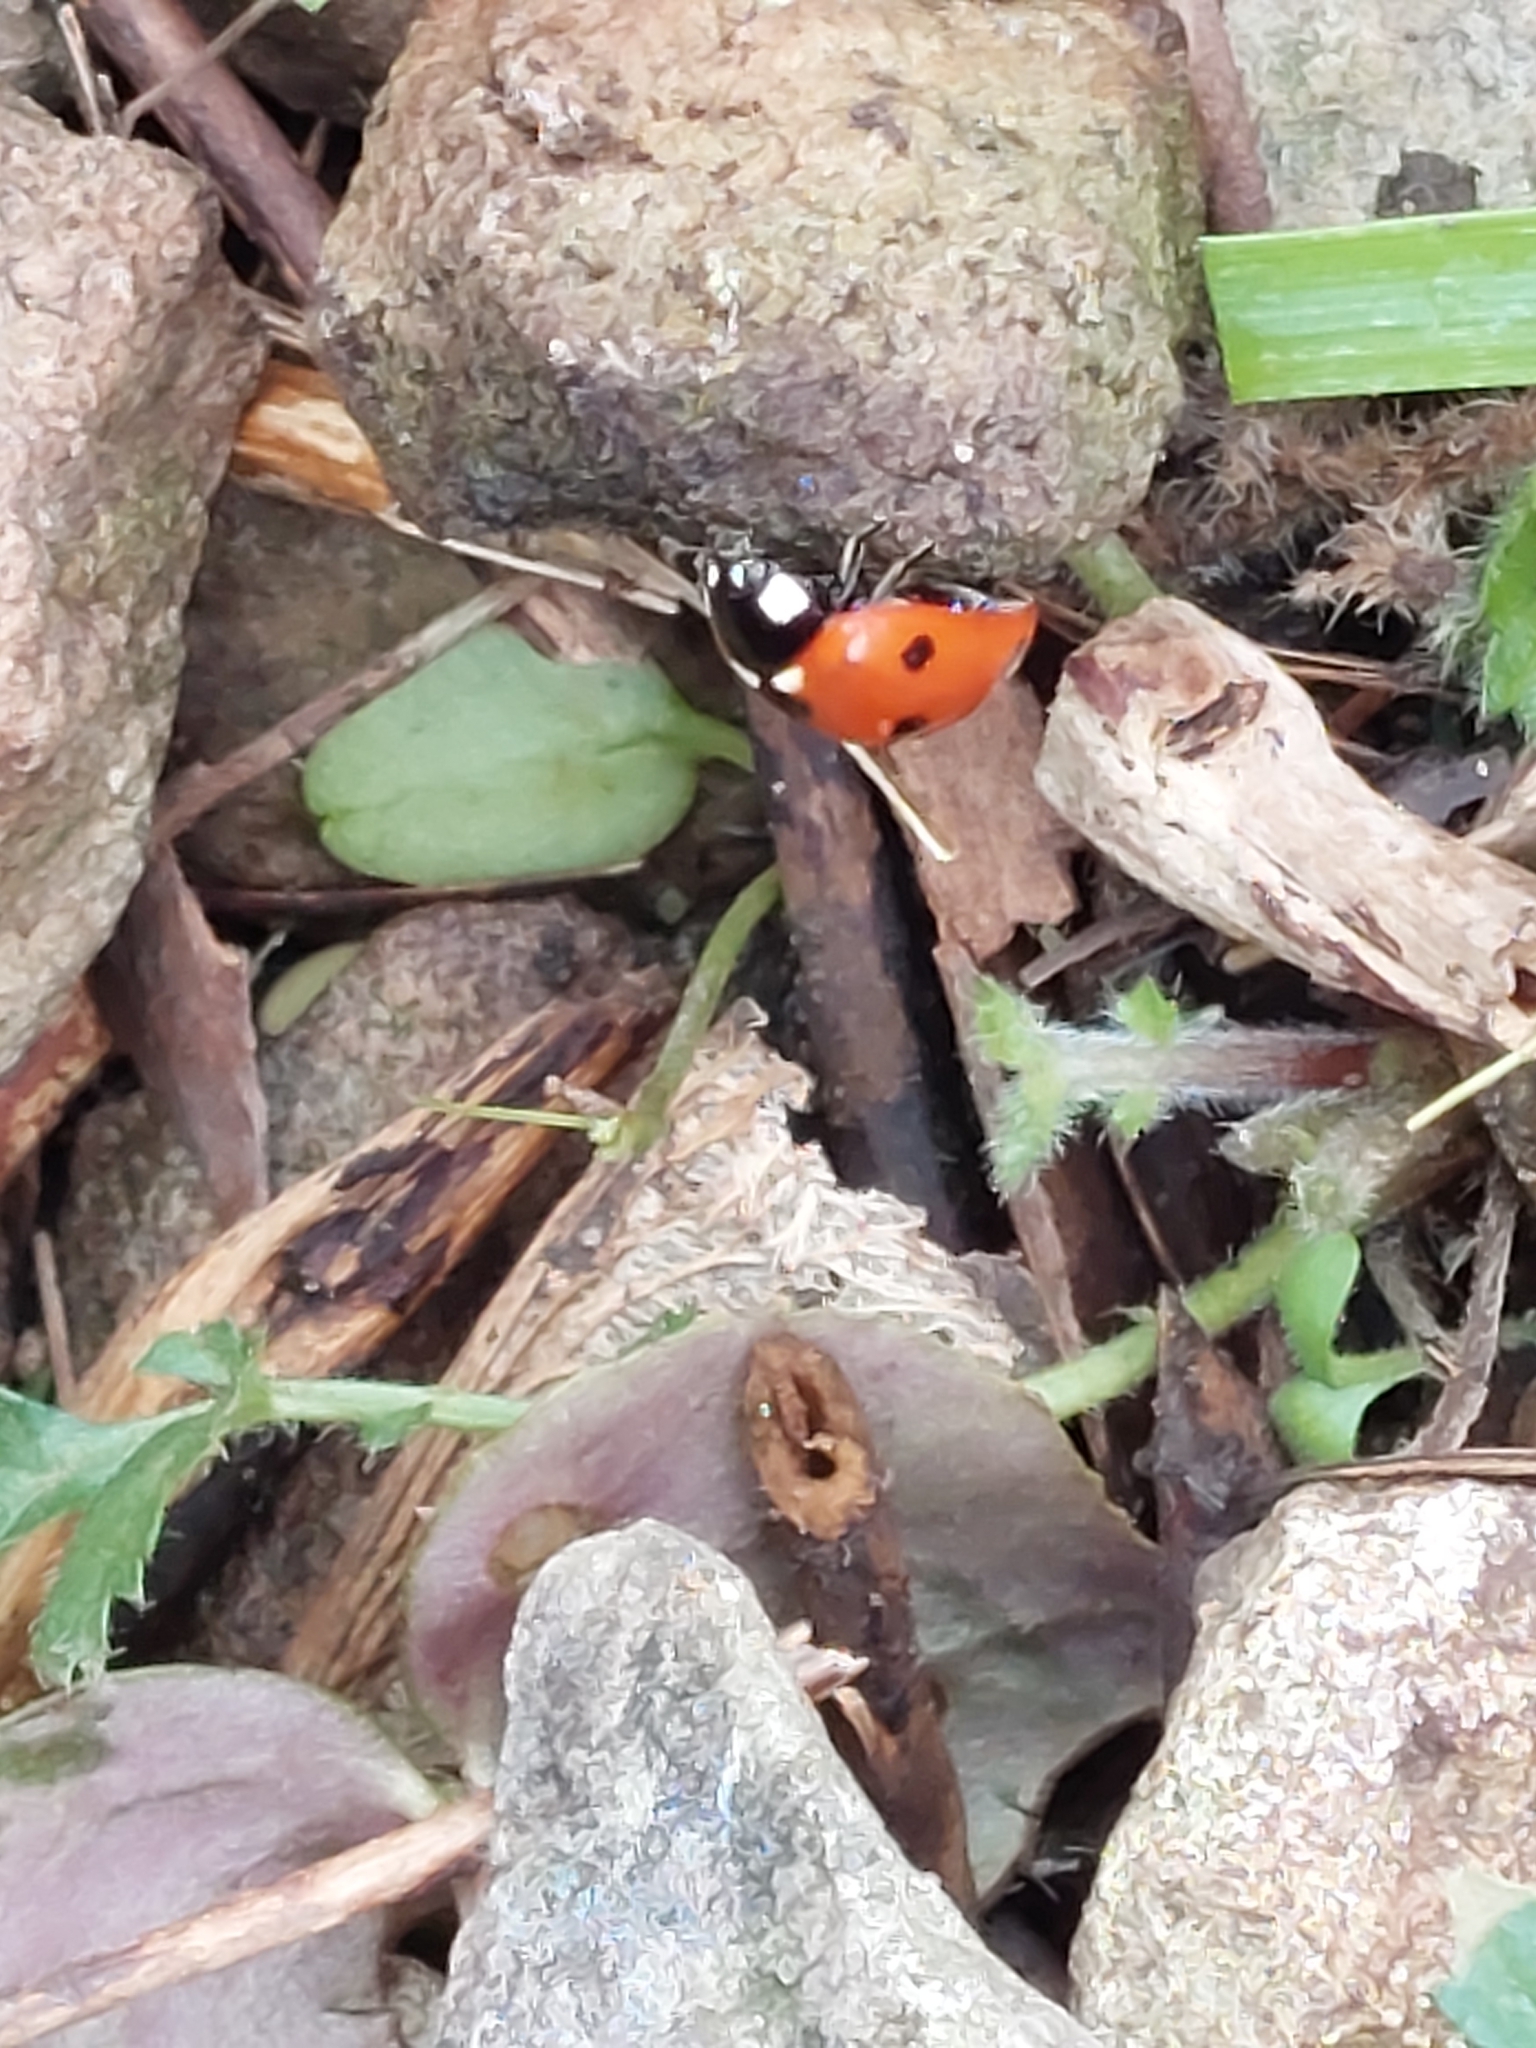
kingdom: Animalia
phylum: Arthropoda
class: Insecta
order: Coleoptera
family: Coccinellidae
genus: Coccinella
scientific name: Coccinella septempunctata
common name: Sevenspotted lady beetle
